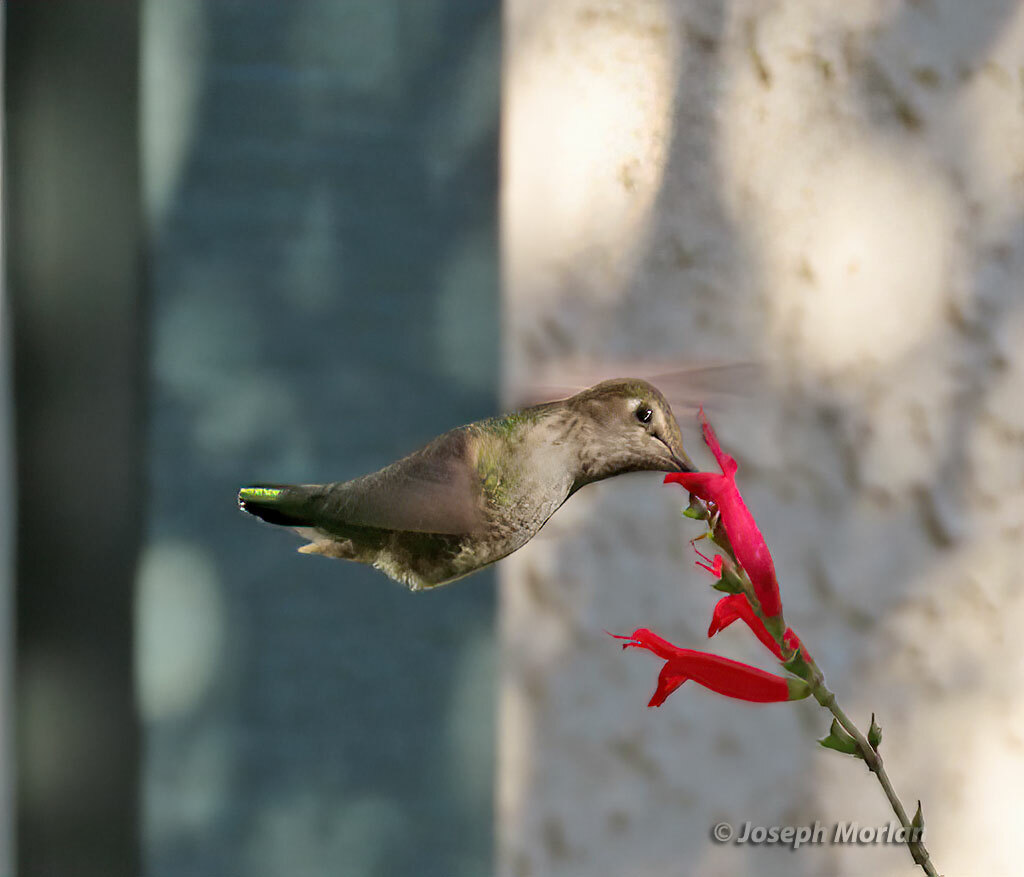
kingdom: Animalia
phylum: Chordata
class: Aves
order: Apodiformes
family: Trochilidae
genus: Calypte
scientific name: Calypte anna
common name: Anna's hummingbird
